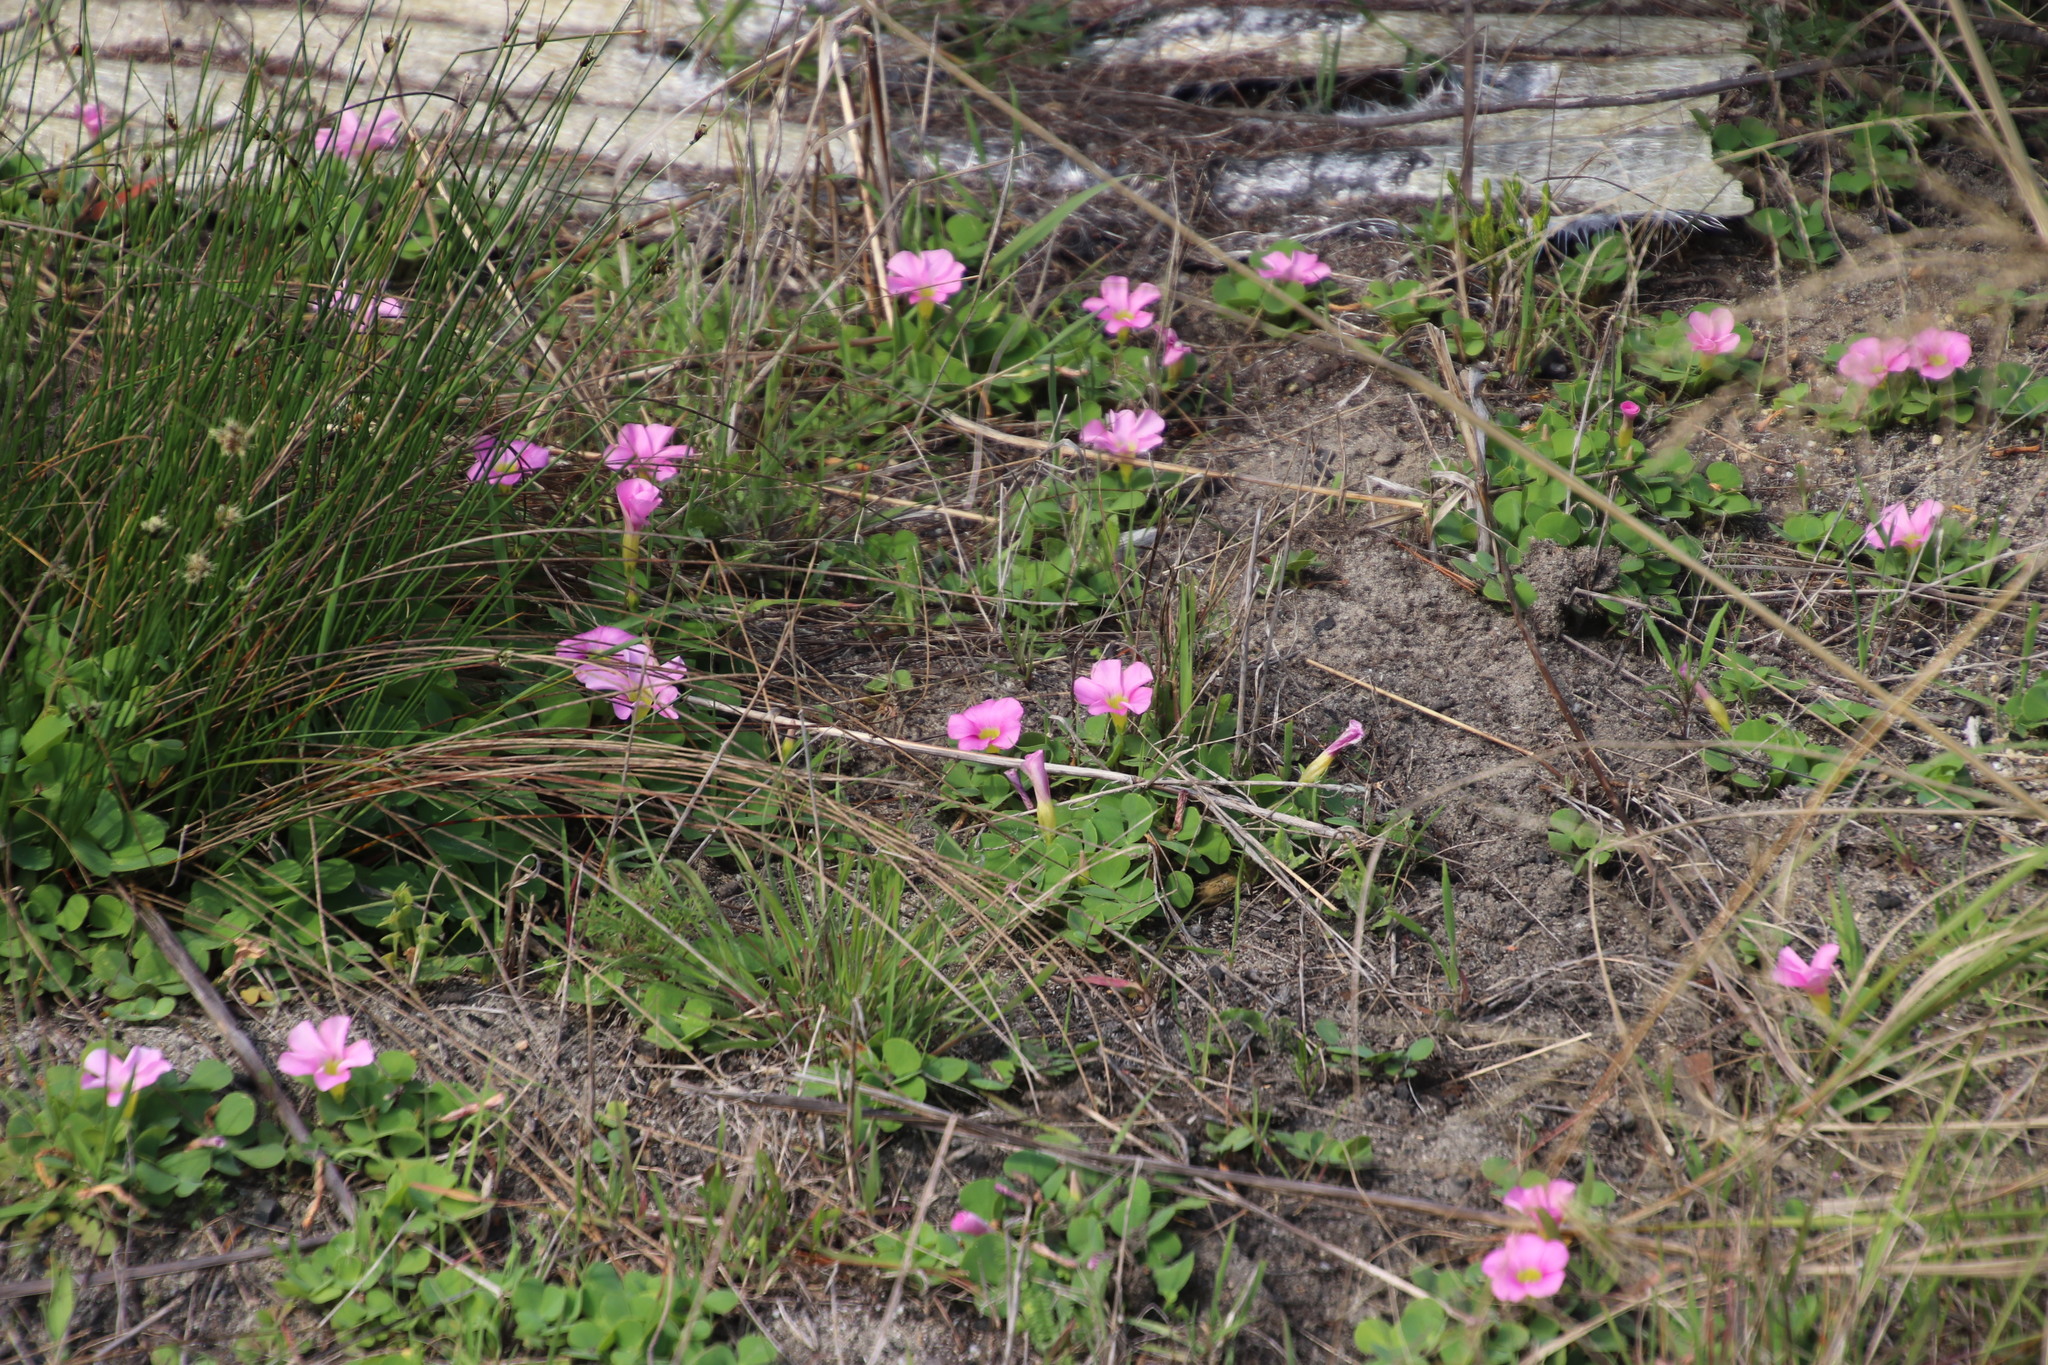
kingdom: Plantae
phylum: Tracheophyta
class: Magnoliopsida
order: Oxalidales
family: Oxalidaceae
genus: Oxalis
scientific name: Oxalis purpurea
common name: Purple woodsorrel
